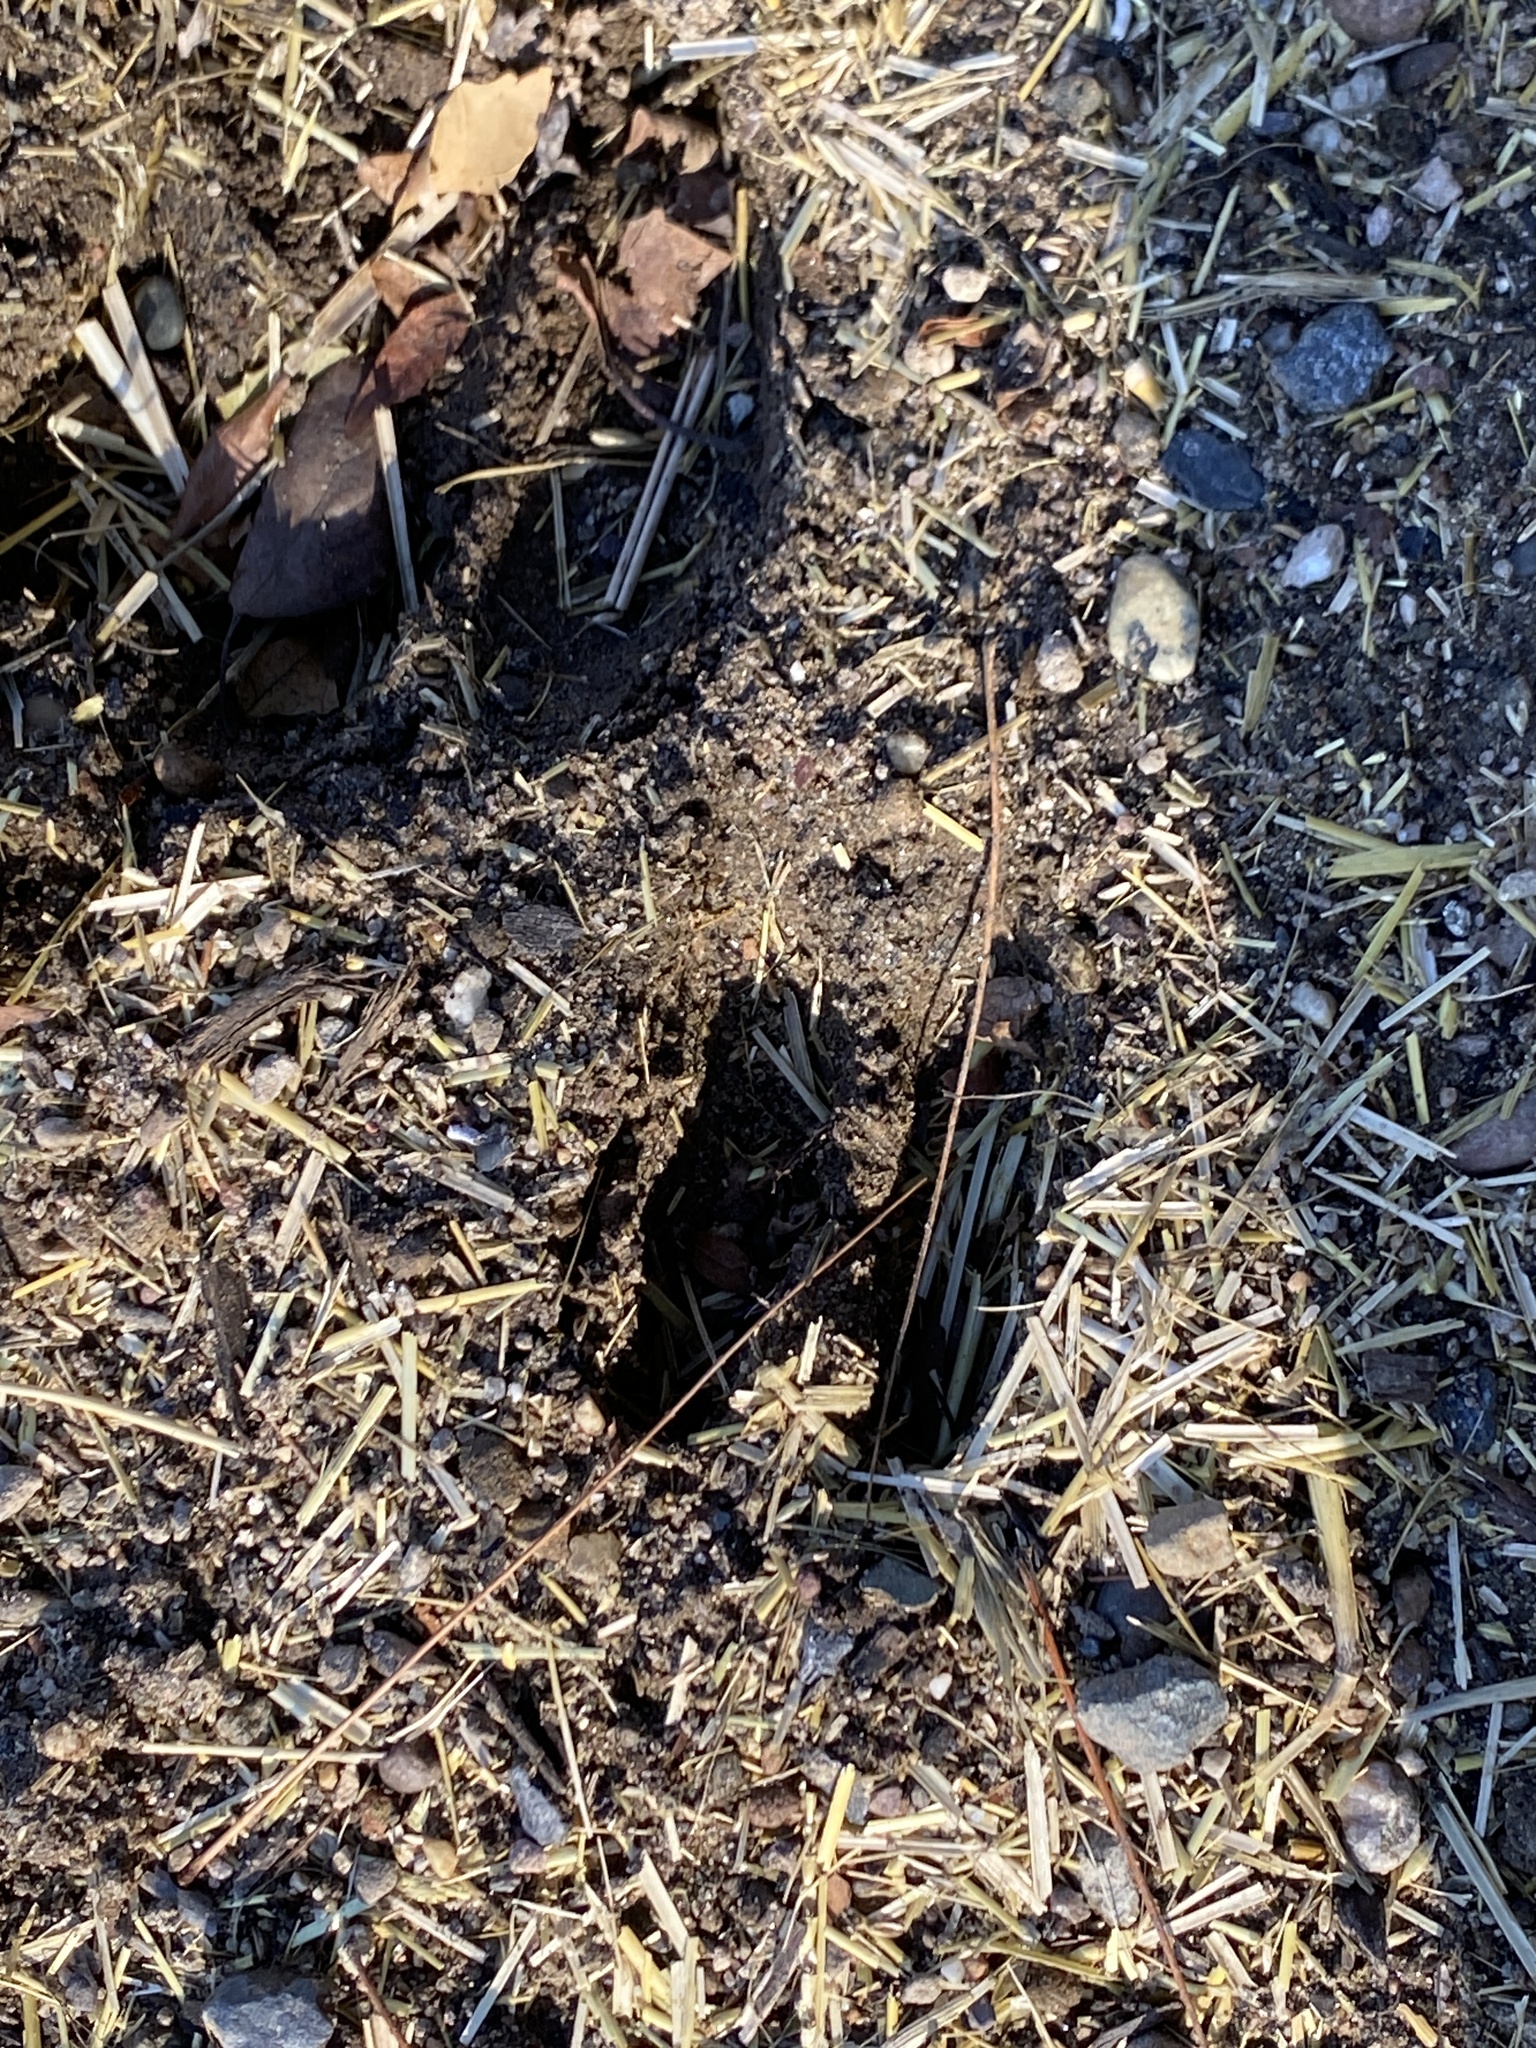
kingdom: Animalia
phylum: Chordata
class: Mammalia
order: Artiodactyla
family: Cervidae
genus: Odocoileus
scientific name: Odocoileus virginianus
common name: White-tailed deer
